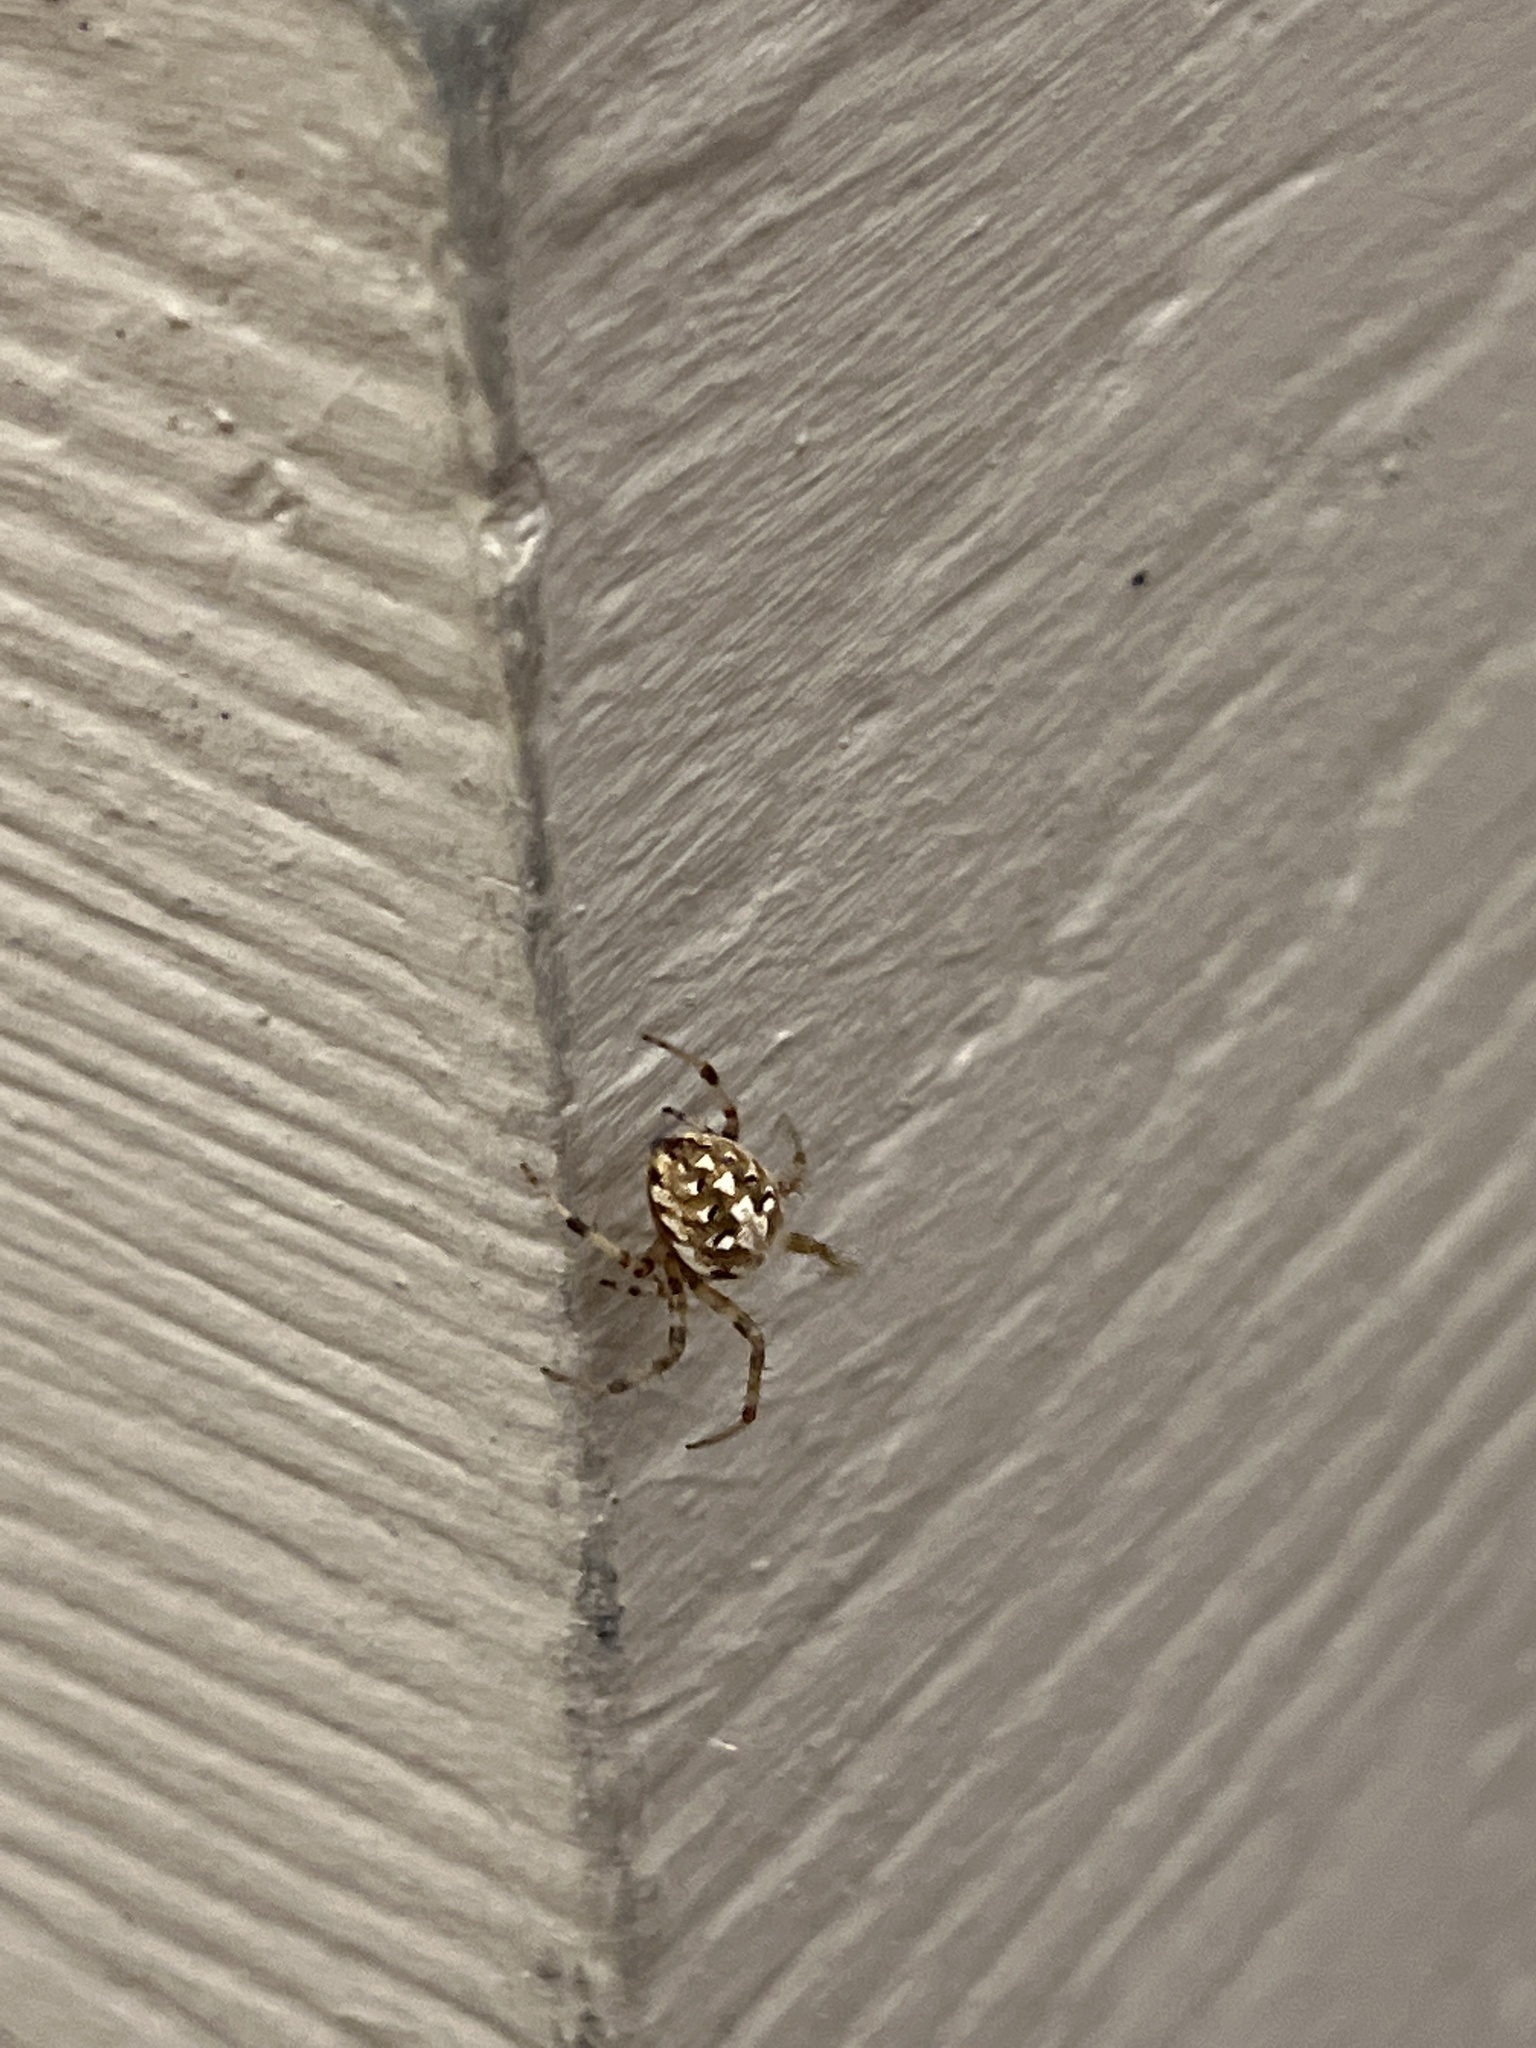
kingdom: Animalia
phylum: Arthropoda
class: Arachnida
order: Araneae
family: Araneidae
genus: Neoscona
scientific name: Neoscona arabesca
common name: Orb weavers
